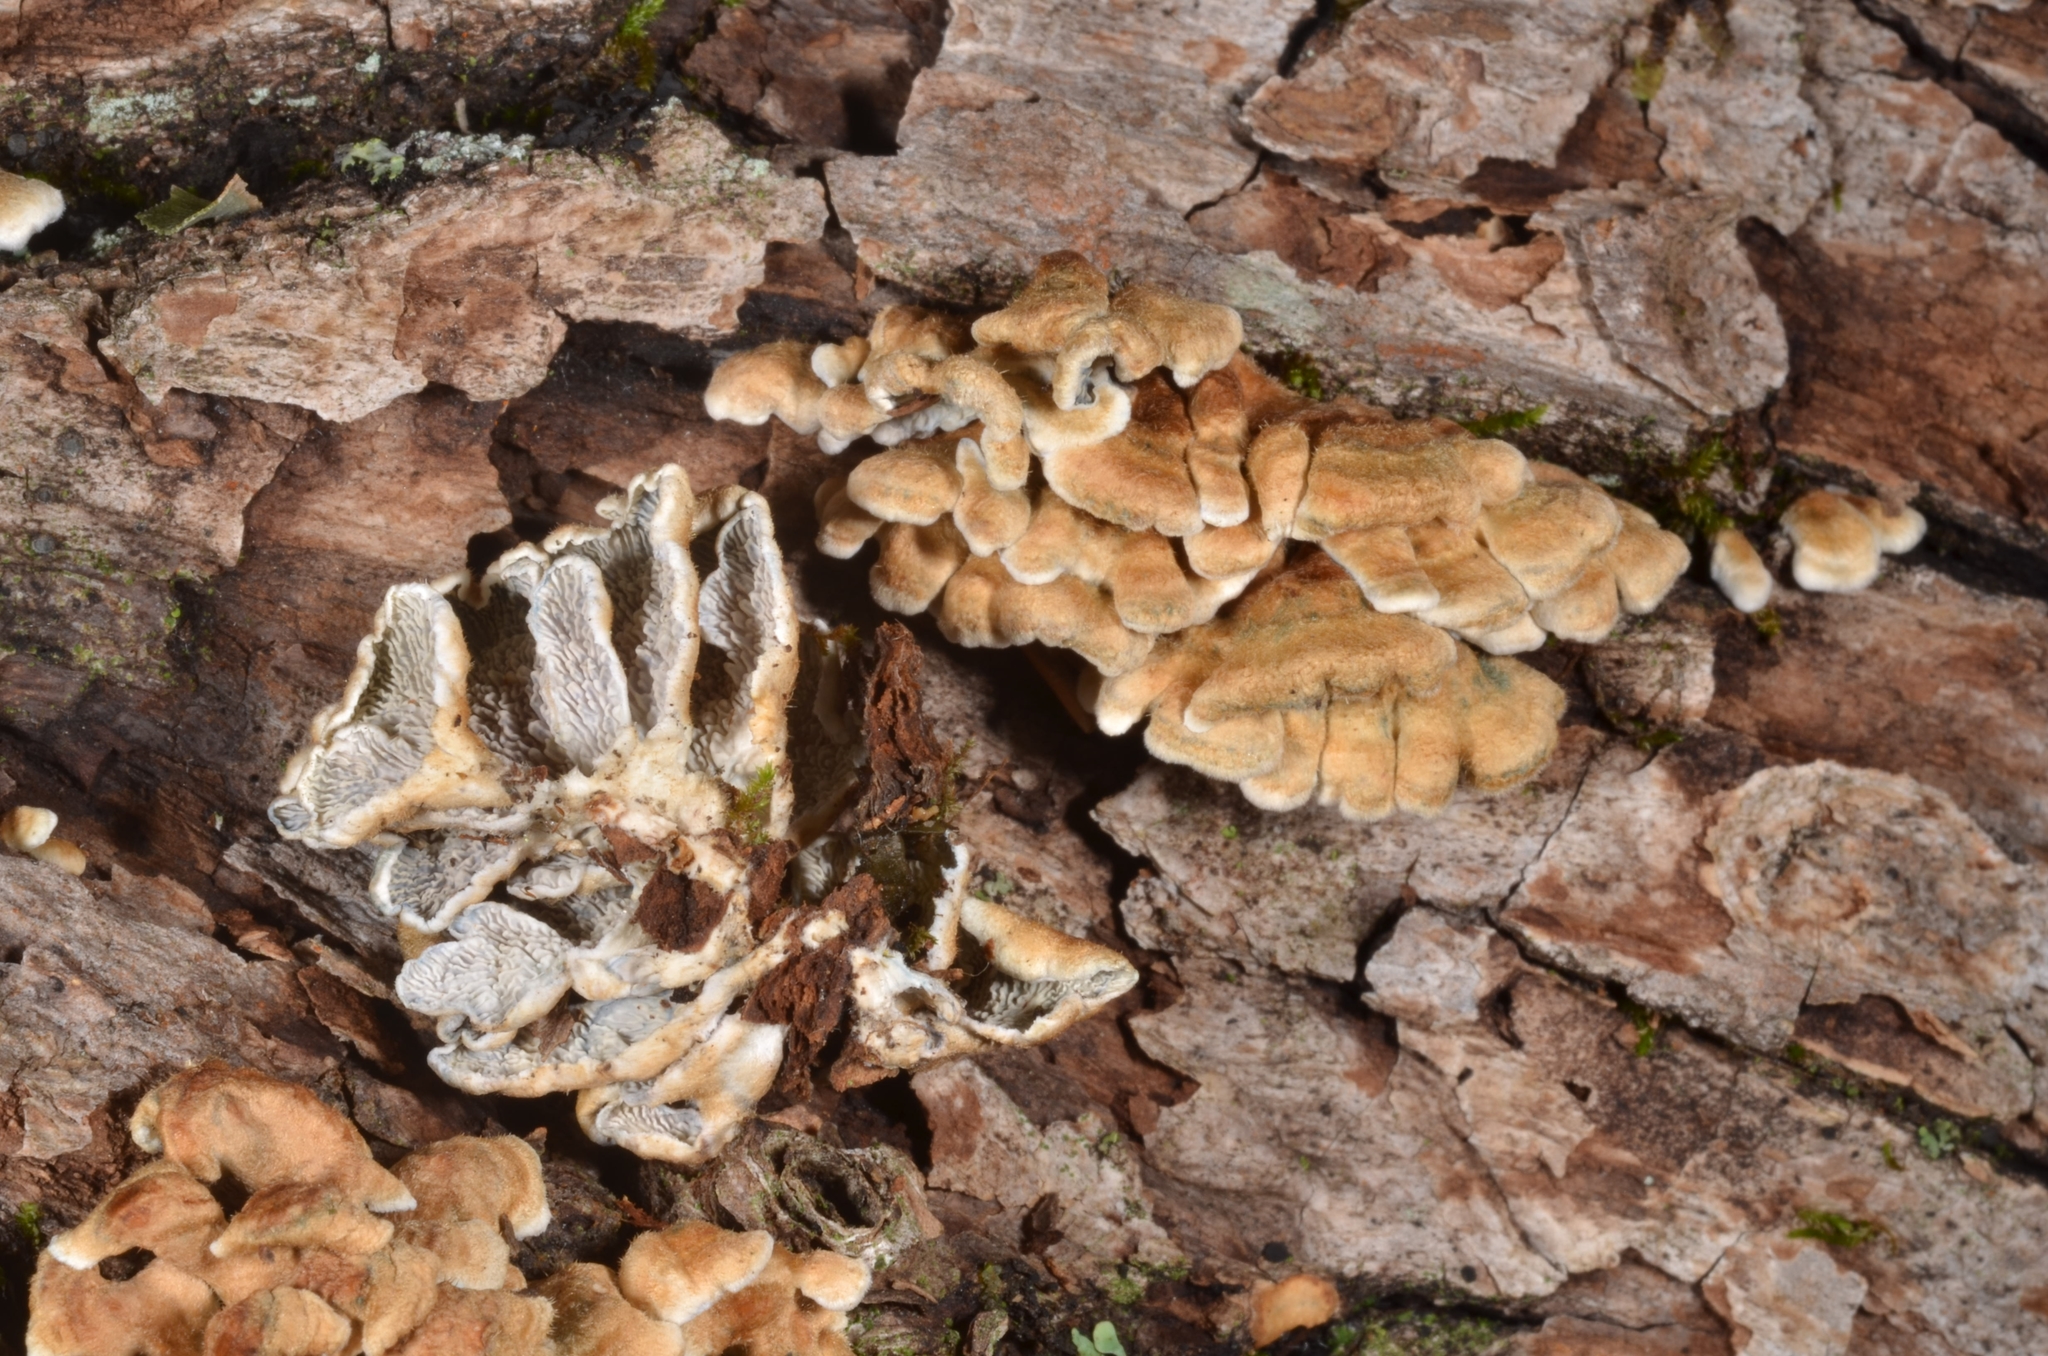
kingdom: Fungi
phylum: Basidiomycota
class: Agaricomycetes
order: Amylocorticiales
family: Amylocorticiaceae
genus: Plicaturopsis
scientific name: Plicaturopsis crispa
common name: Crimped gill
